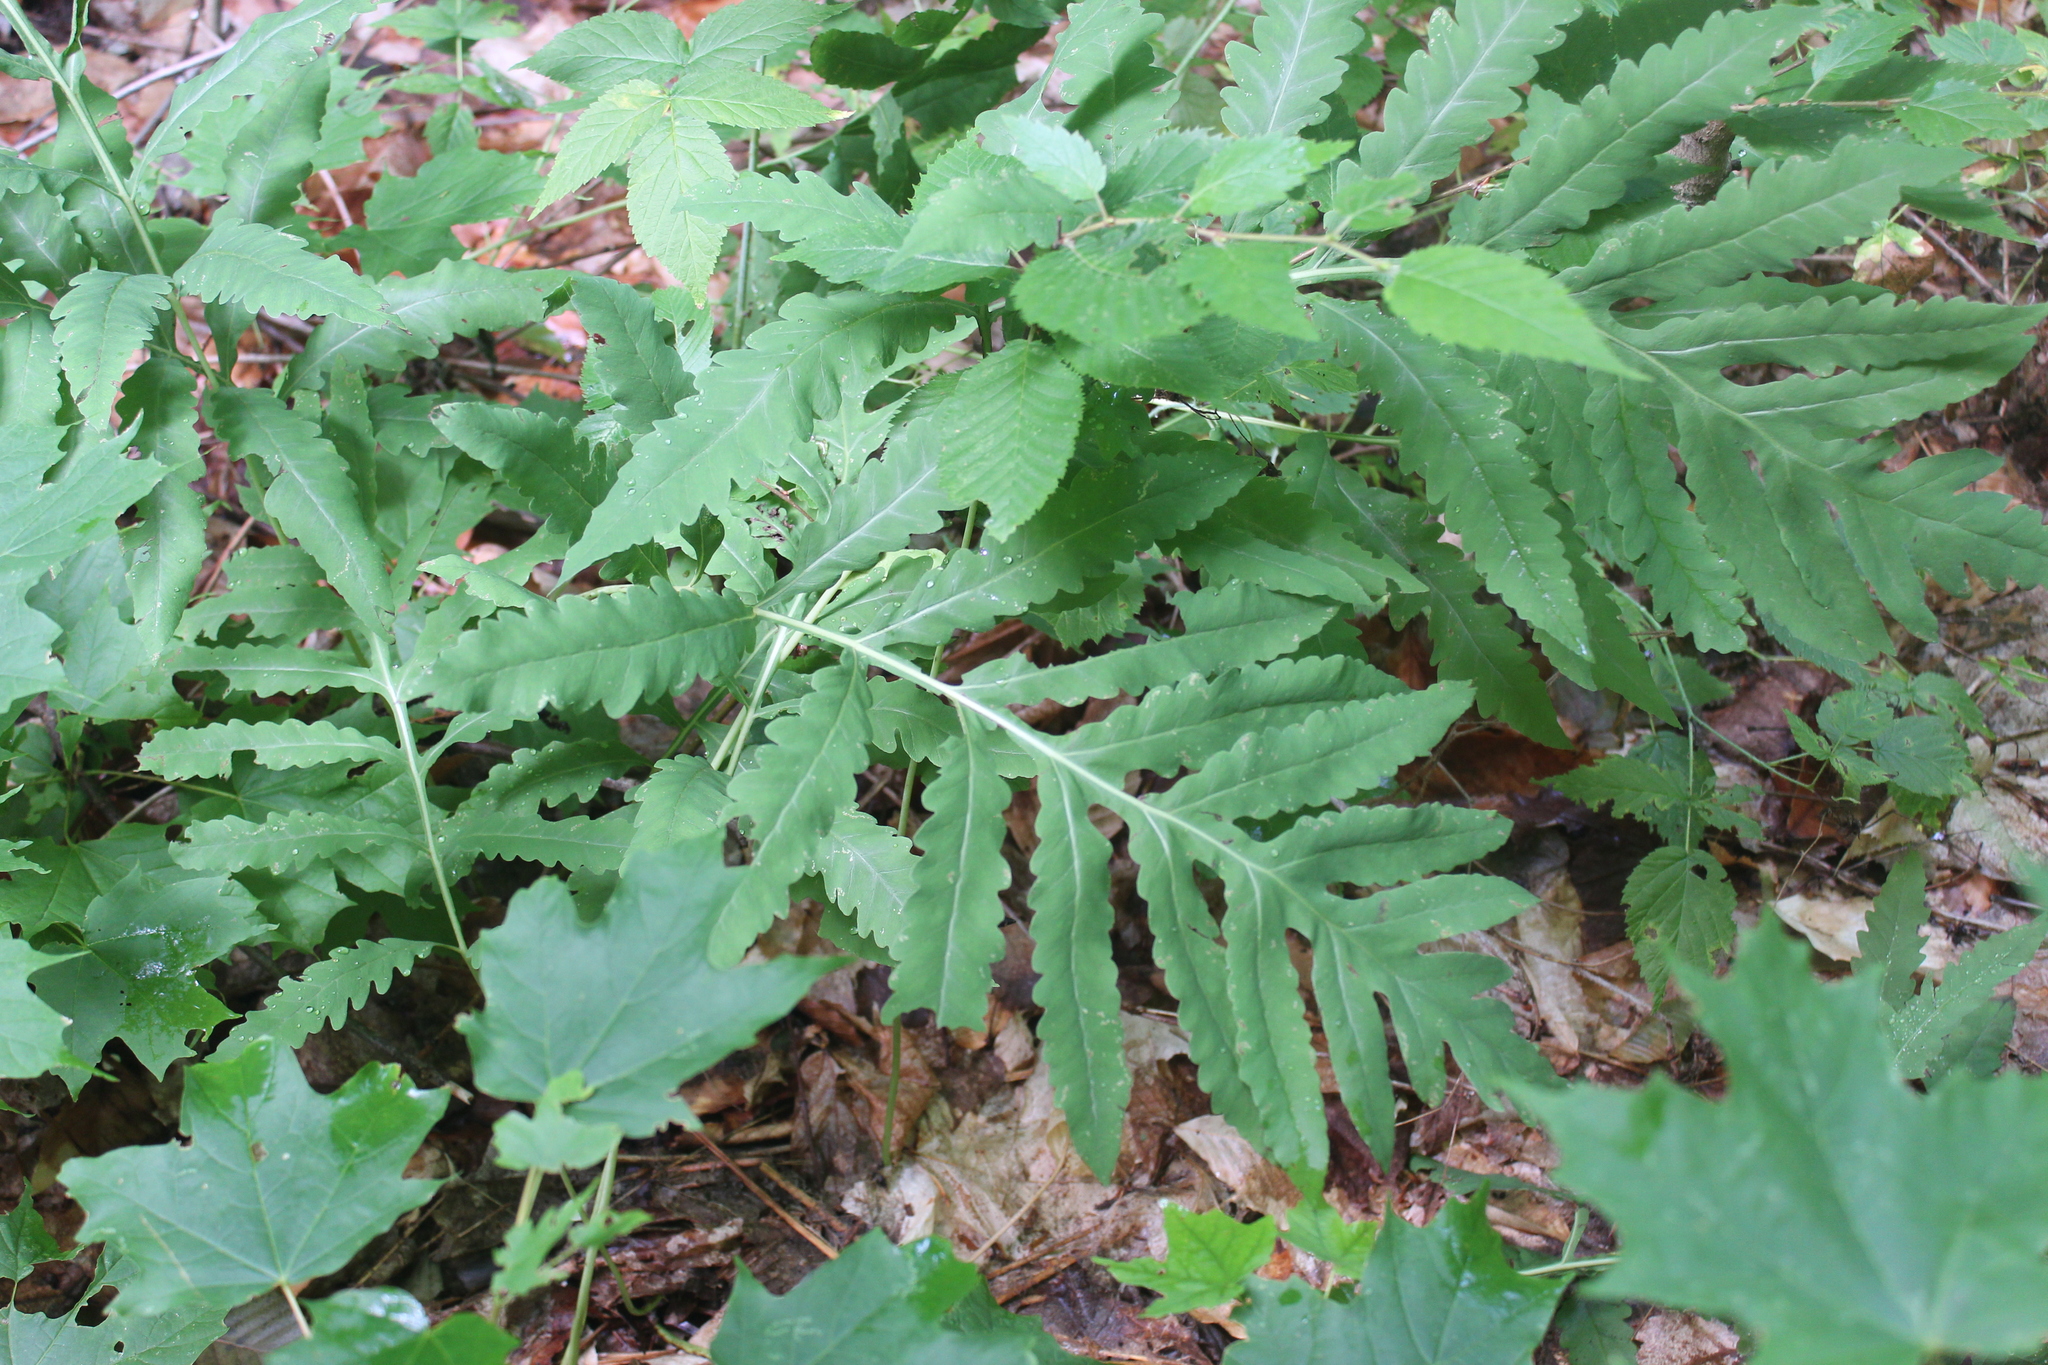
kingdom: Plantae
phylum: Tracheophyta
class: Polypodiopsida
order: Polypodiales
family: Onocleaceae
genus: Onoclea
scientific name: Onoclea sensibilis
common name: Sensitive fern
